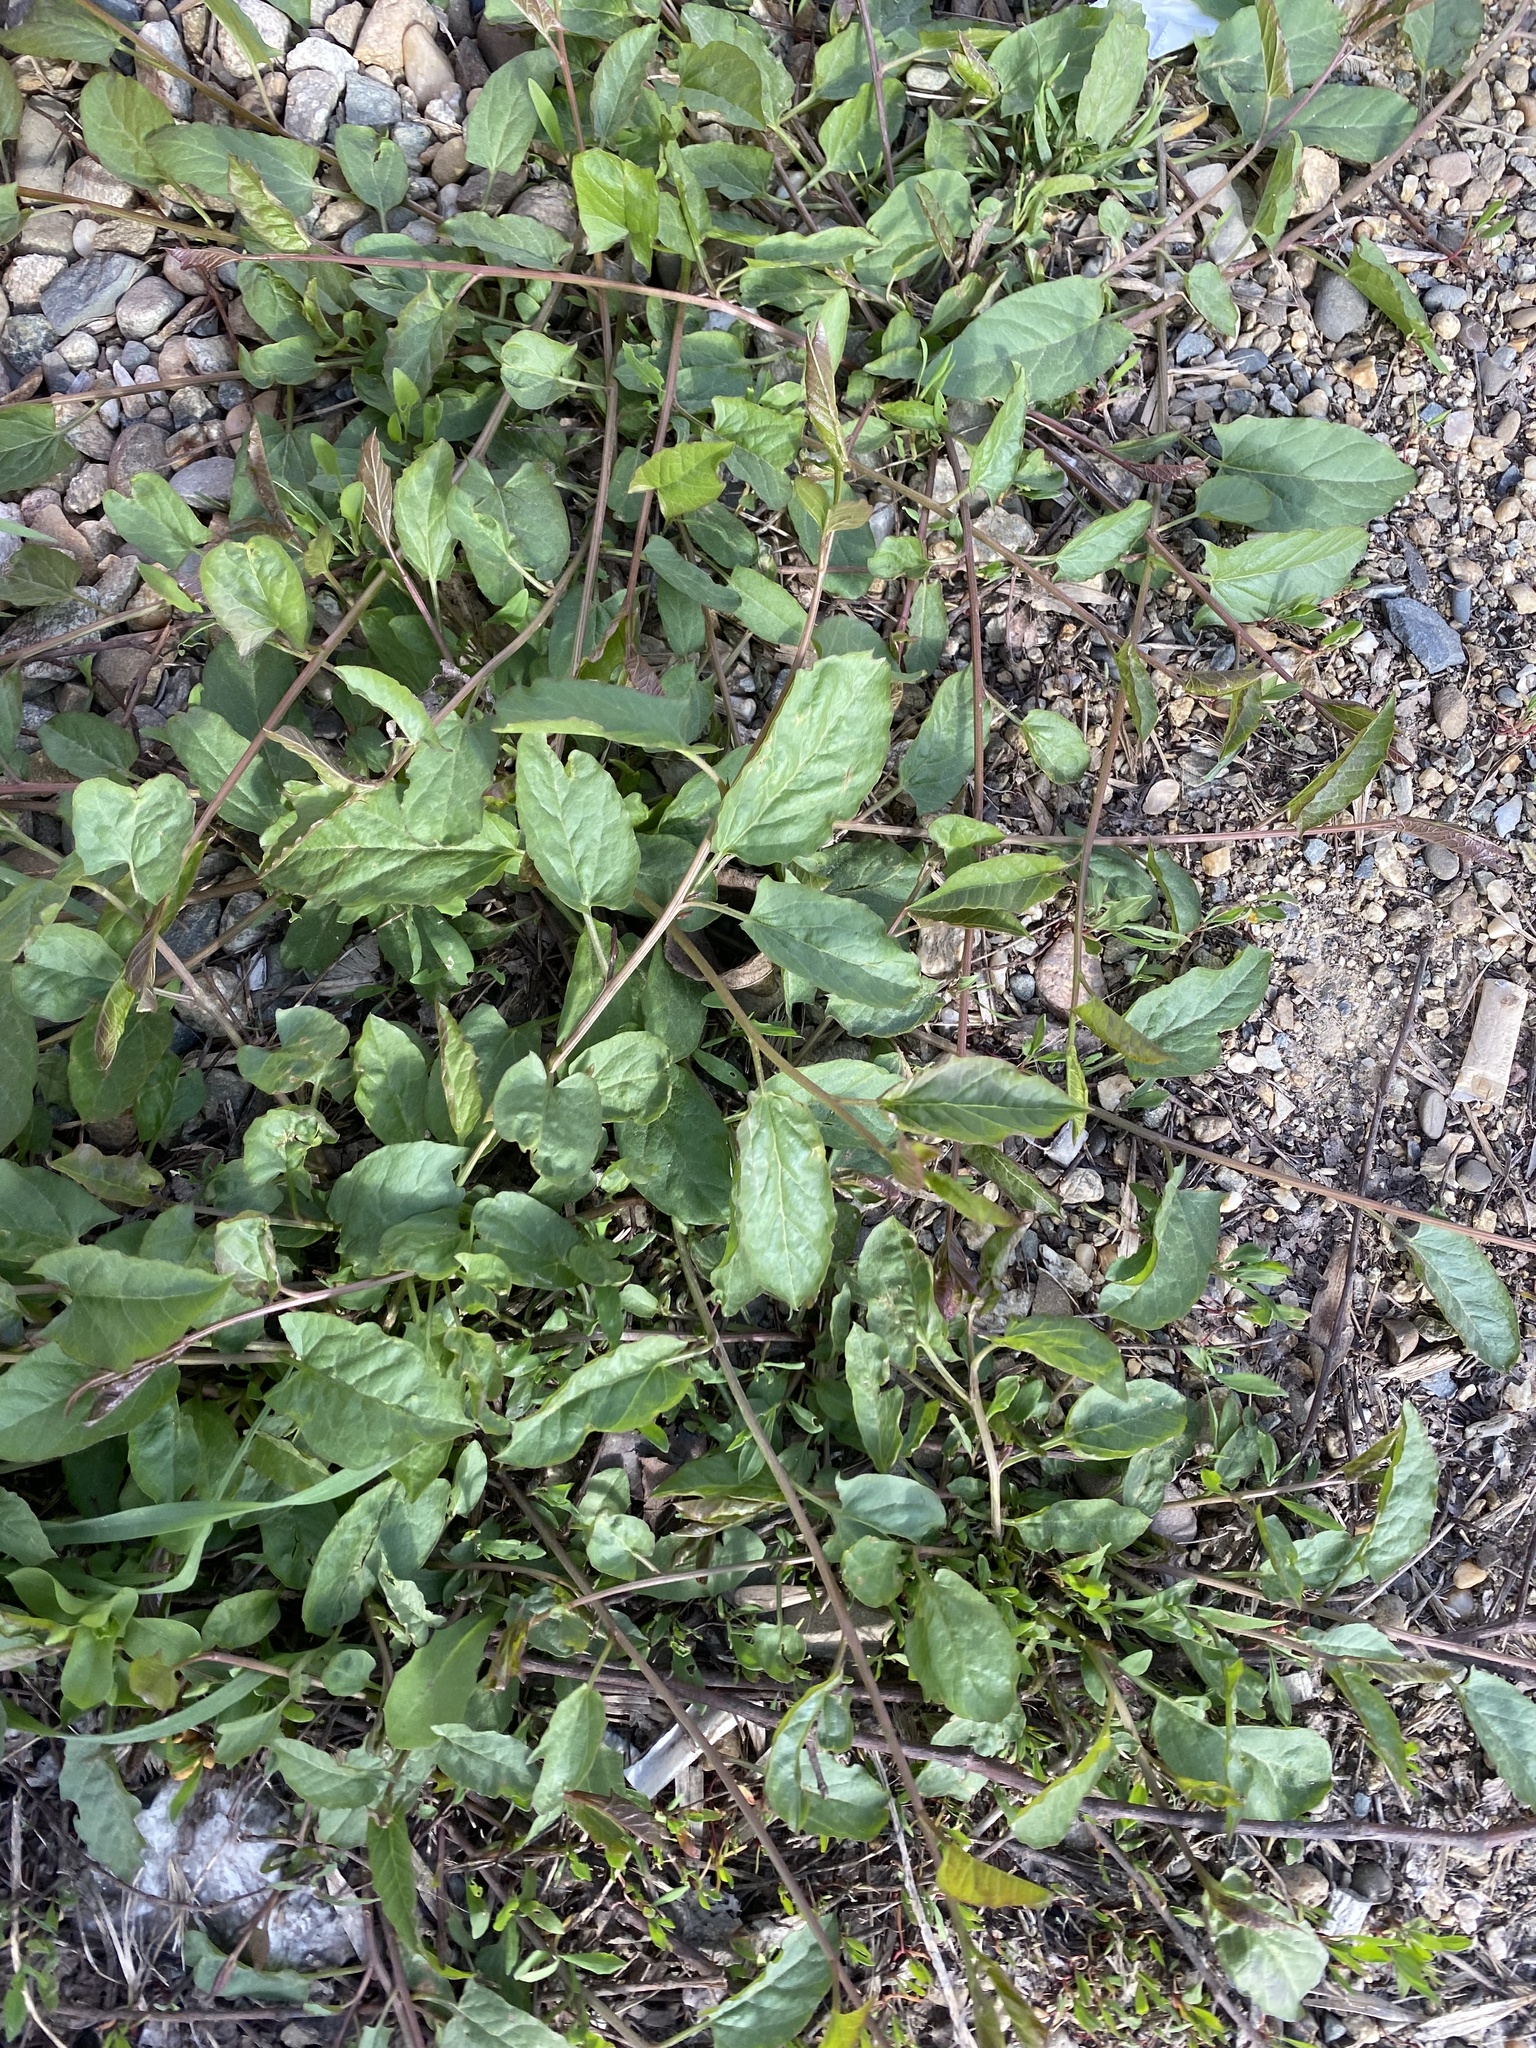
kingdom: Plantae
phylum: Tracheophyta
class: Magnoliopsida
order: Solanales
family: Convolvulaceae
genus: Convolvulus
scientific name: Convolvulus arvensis
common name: Field bindweed
